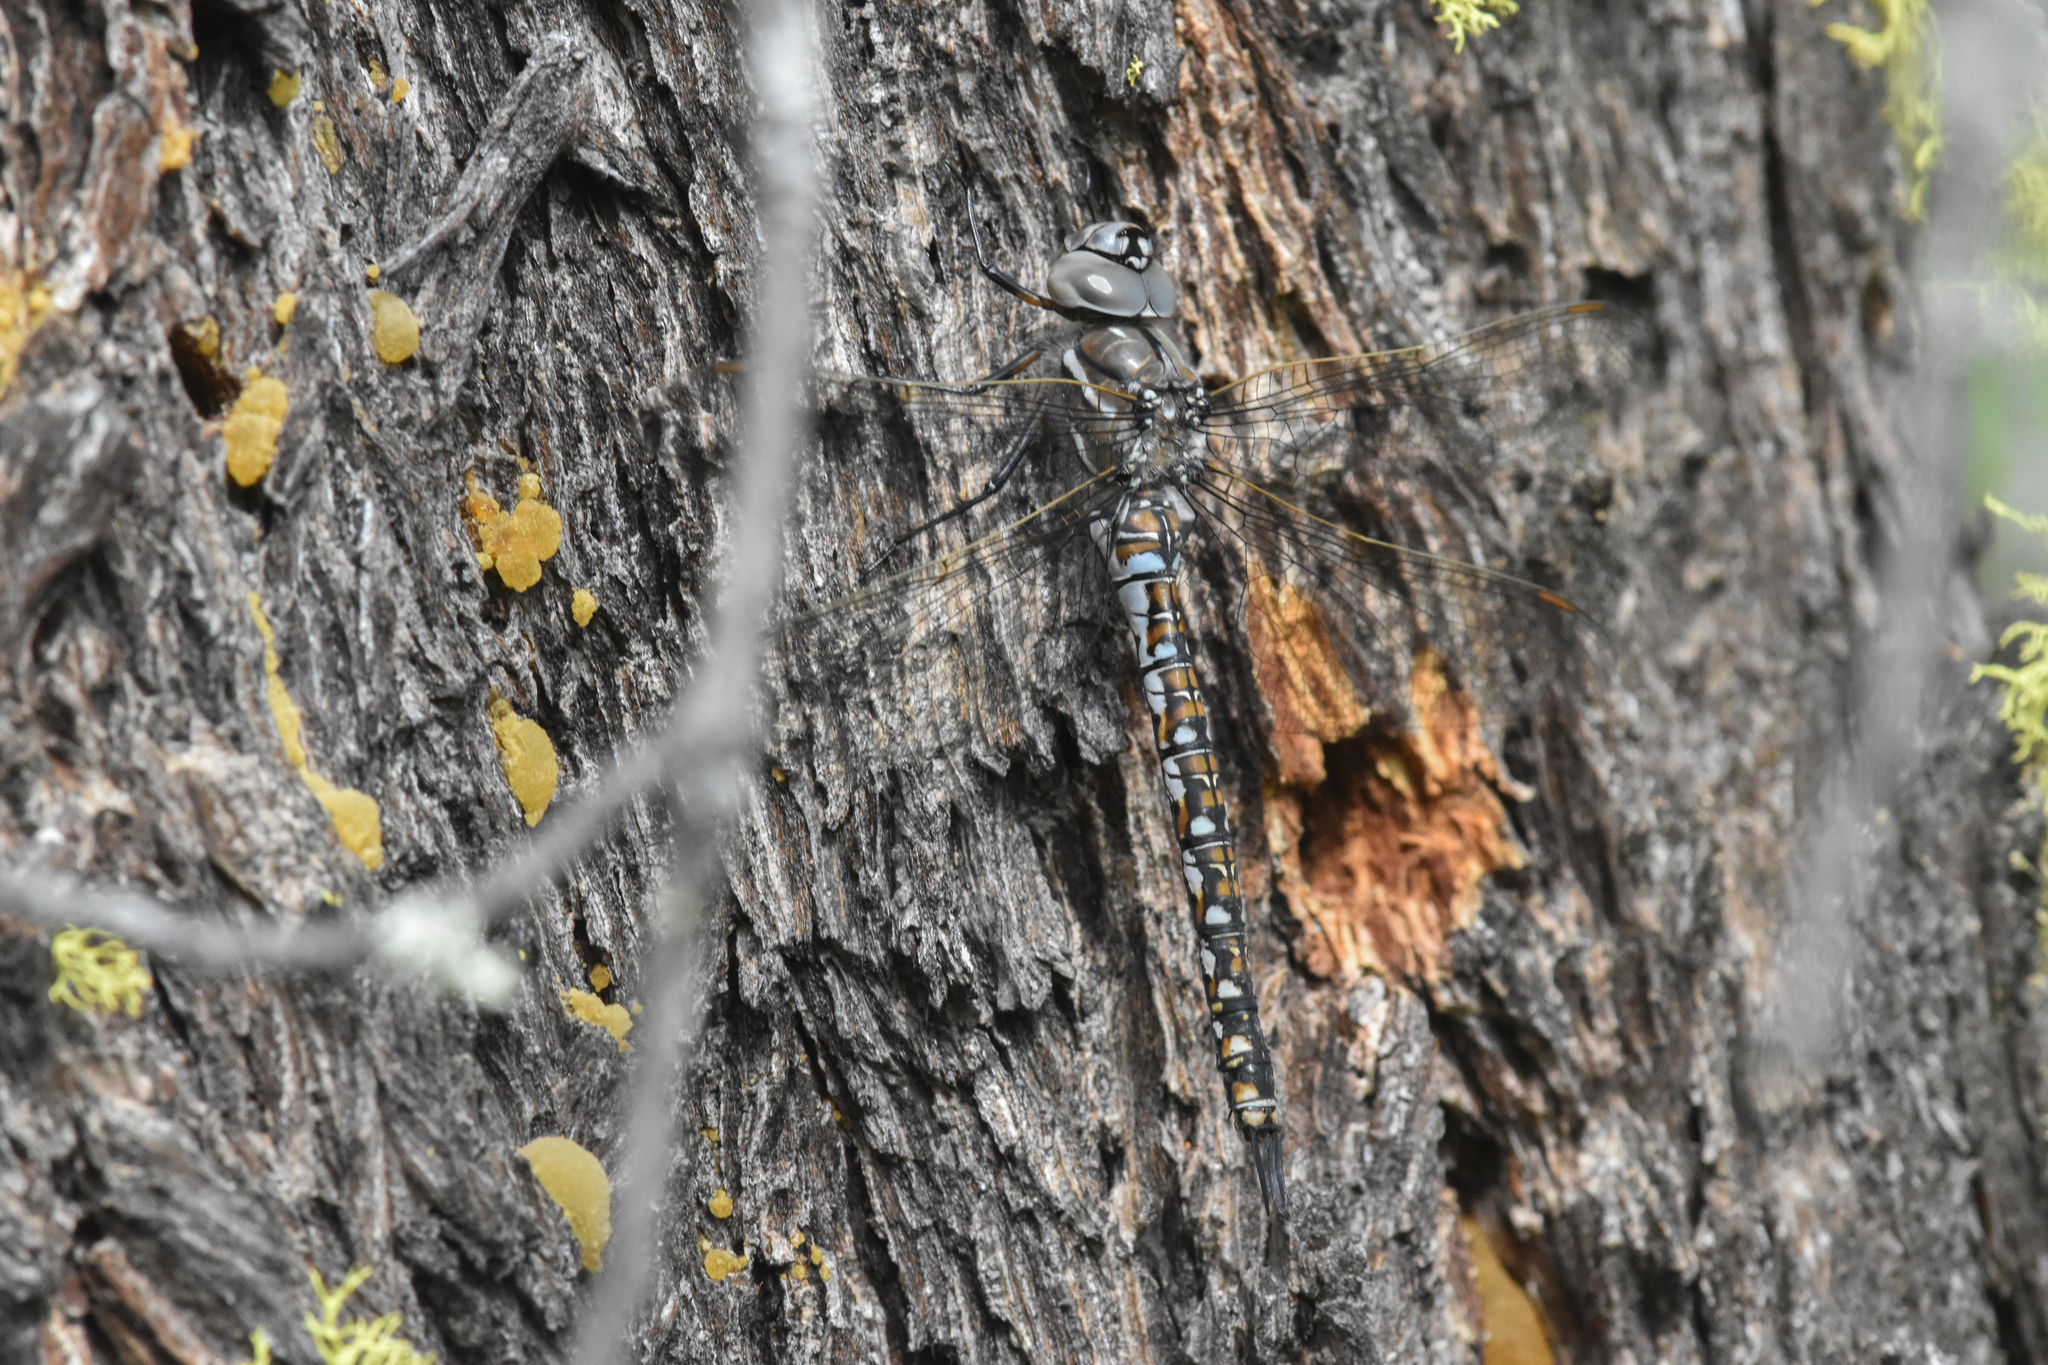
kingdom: Animalia
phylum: Arthropoda
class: Insecta
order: Odonata
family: Aeshnidae
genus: Rhionaeschna
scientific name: Rhionaeschna californica
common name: California darner
